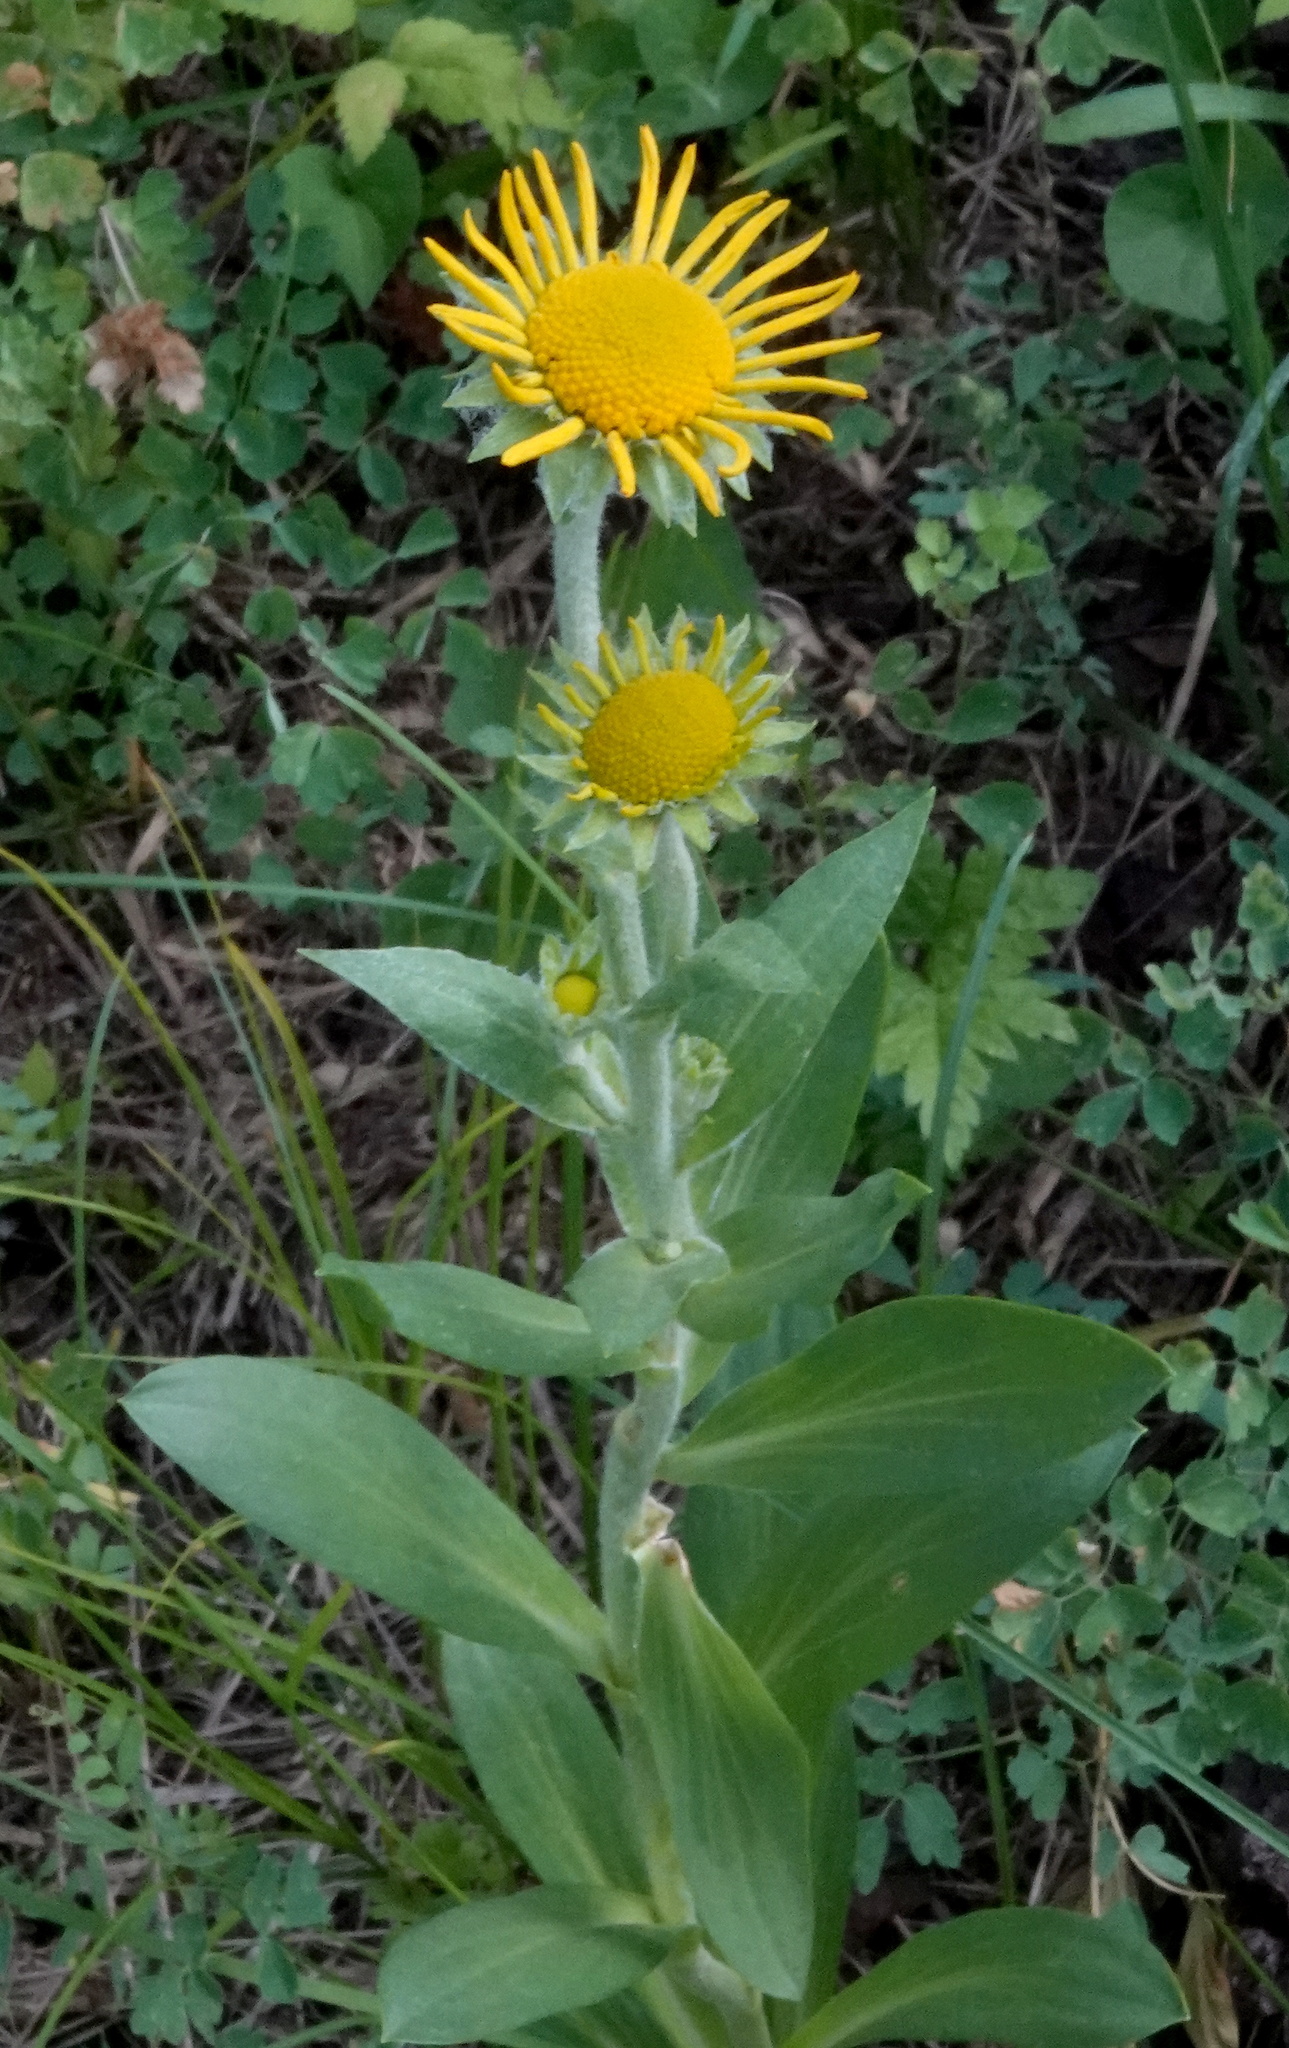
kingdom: Plantae
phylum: Tracheophyta
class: Magnoliopsida
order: Asterales
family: Asteraceae
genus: Hymenoxys
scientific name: Hymenoxys hoopesii
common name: Orange-sneezeweed
